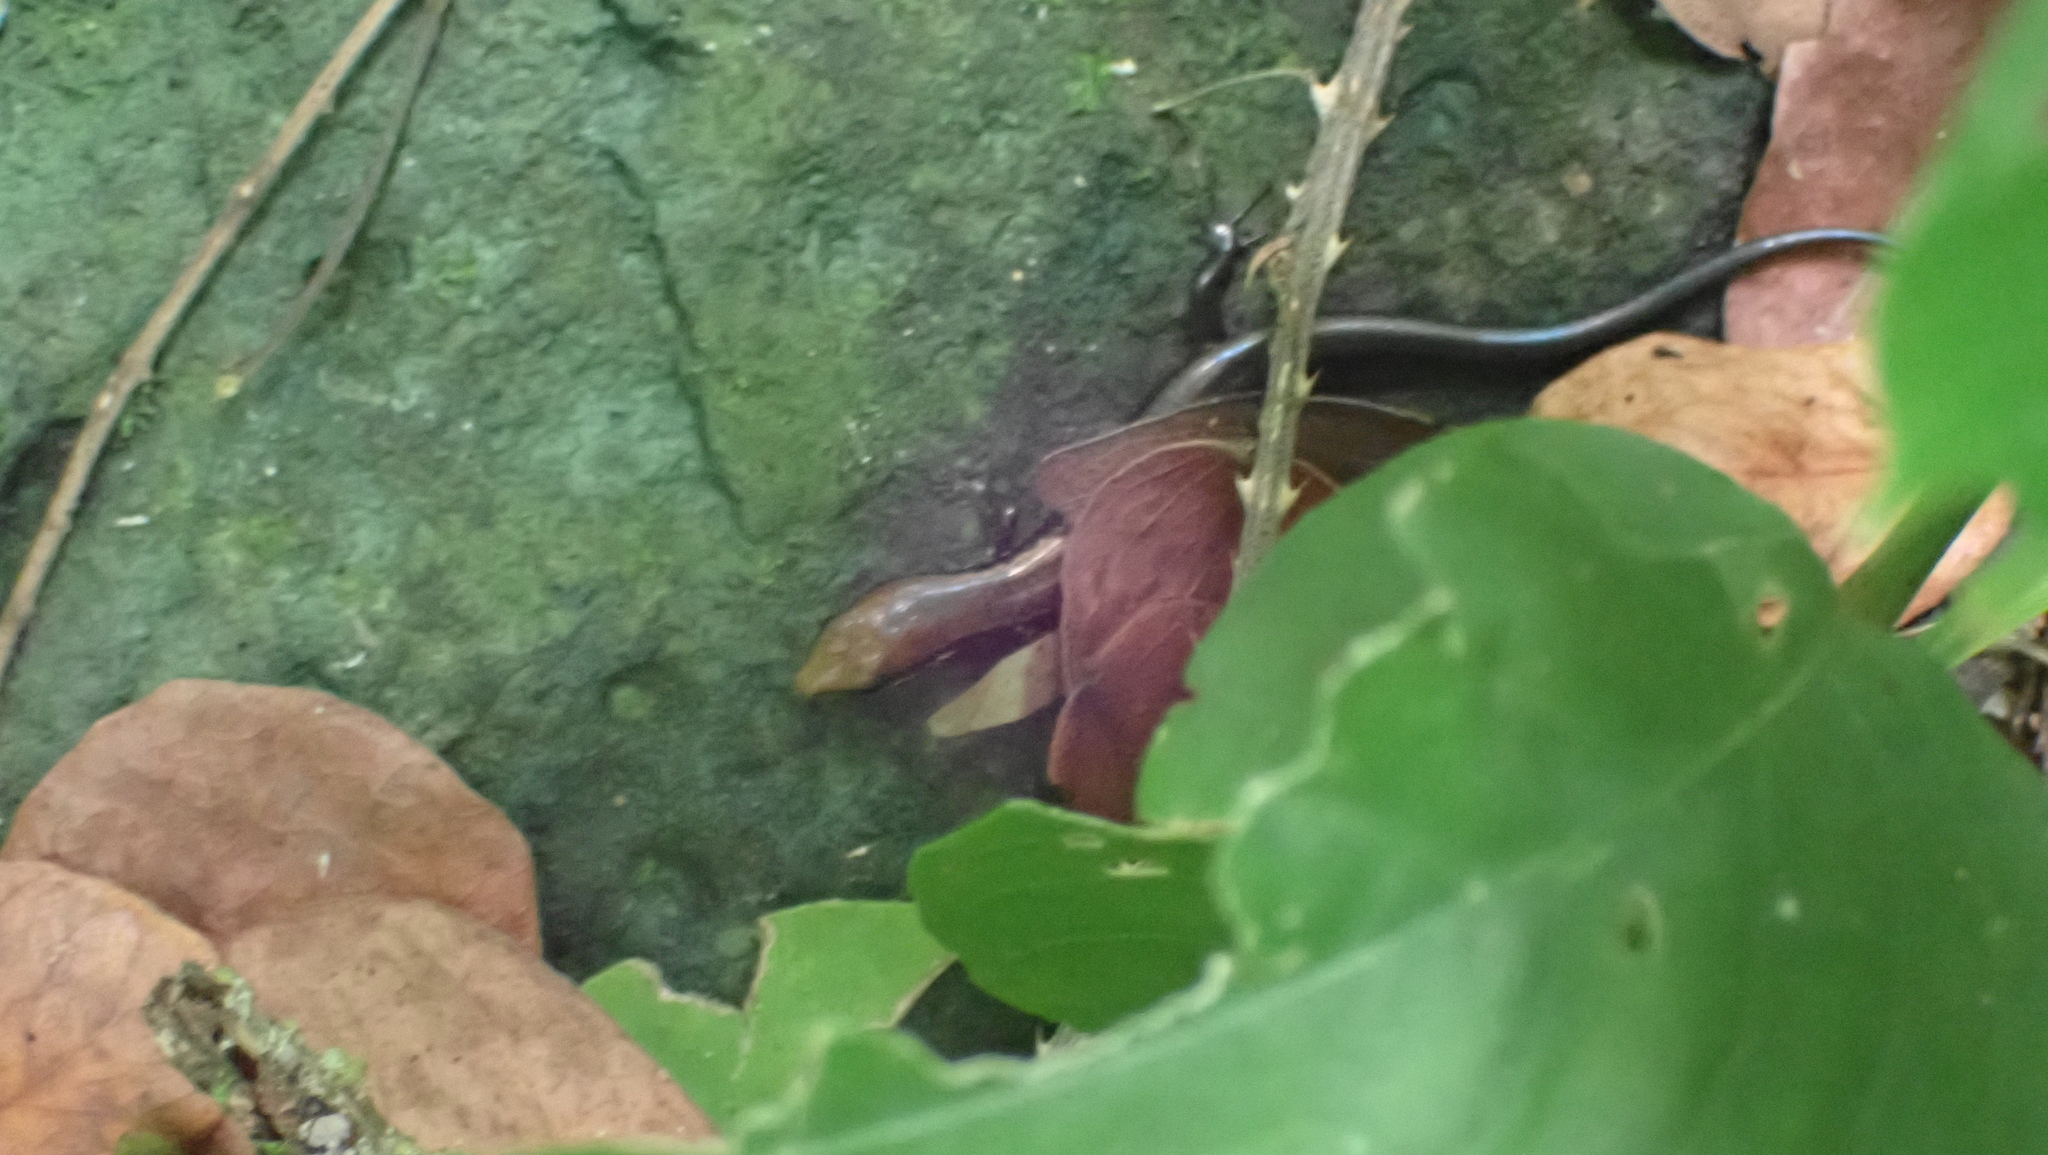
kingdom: Animalia
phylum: Chordata
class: Squamata
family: Scincidae
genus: Scincella
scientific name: Scincella cherriei
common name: Brown forest skink
